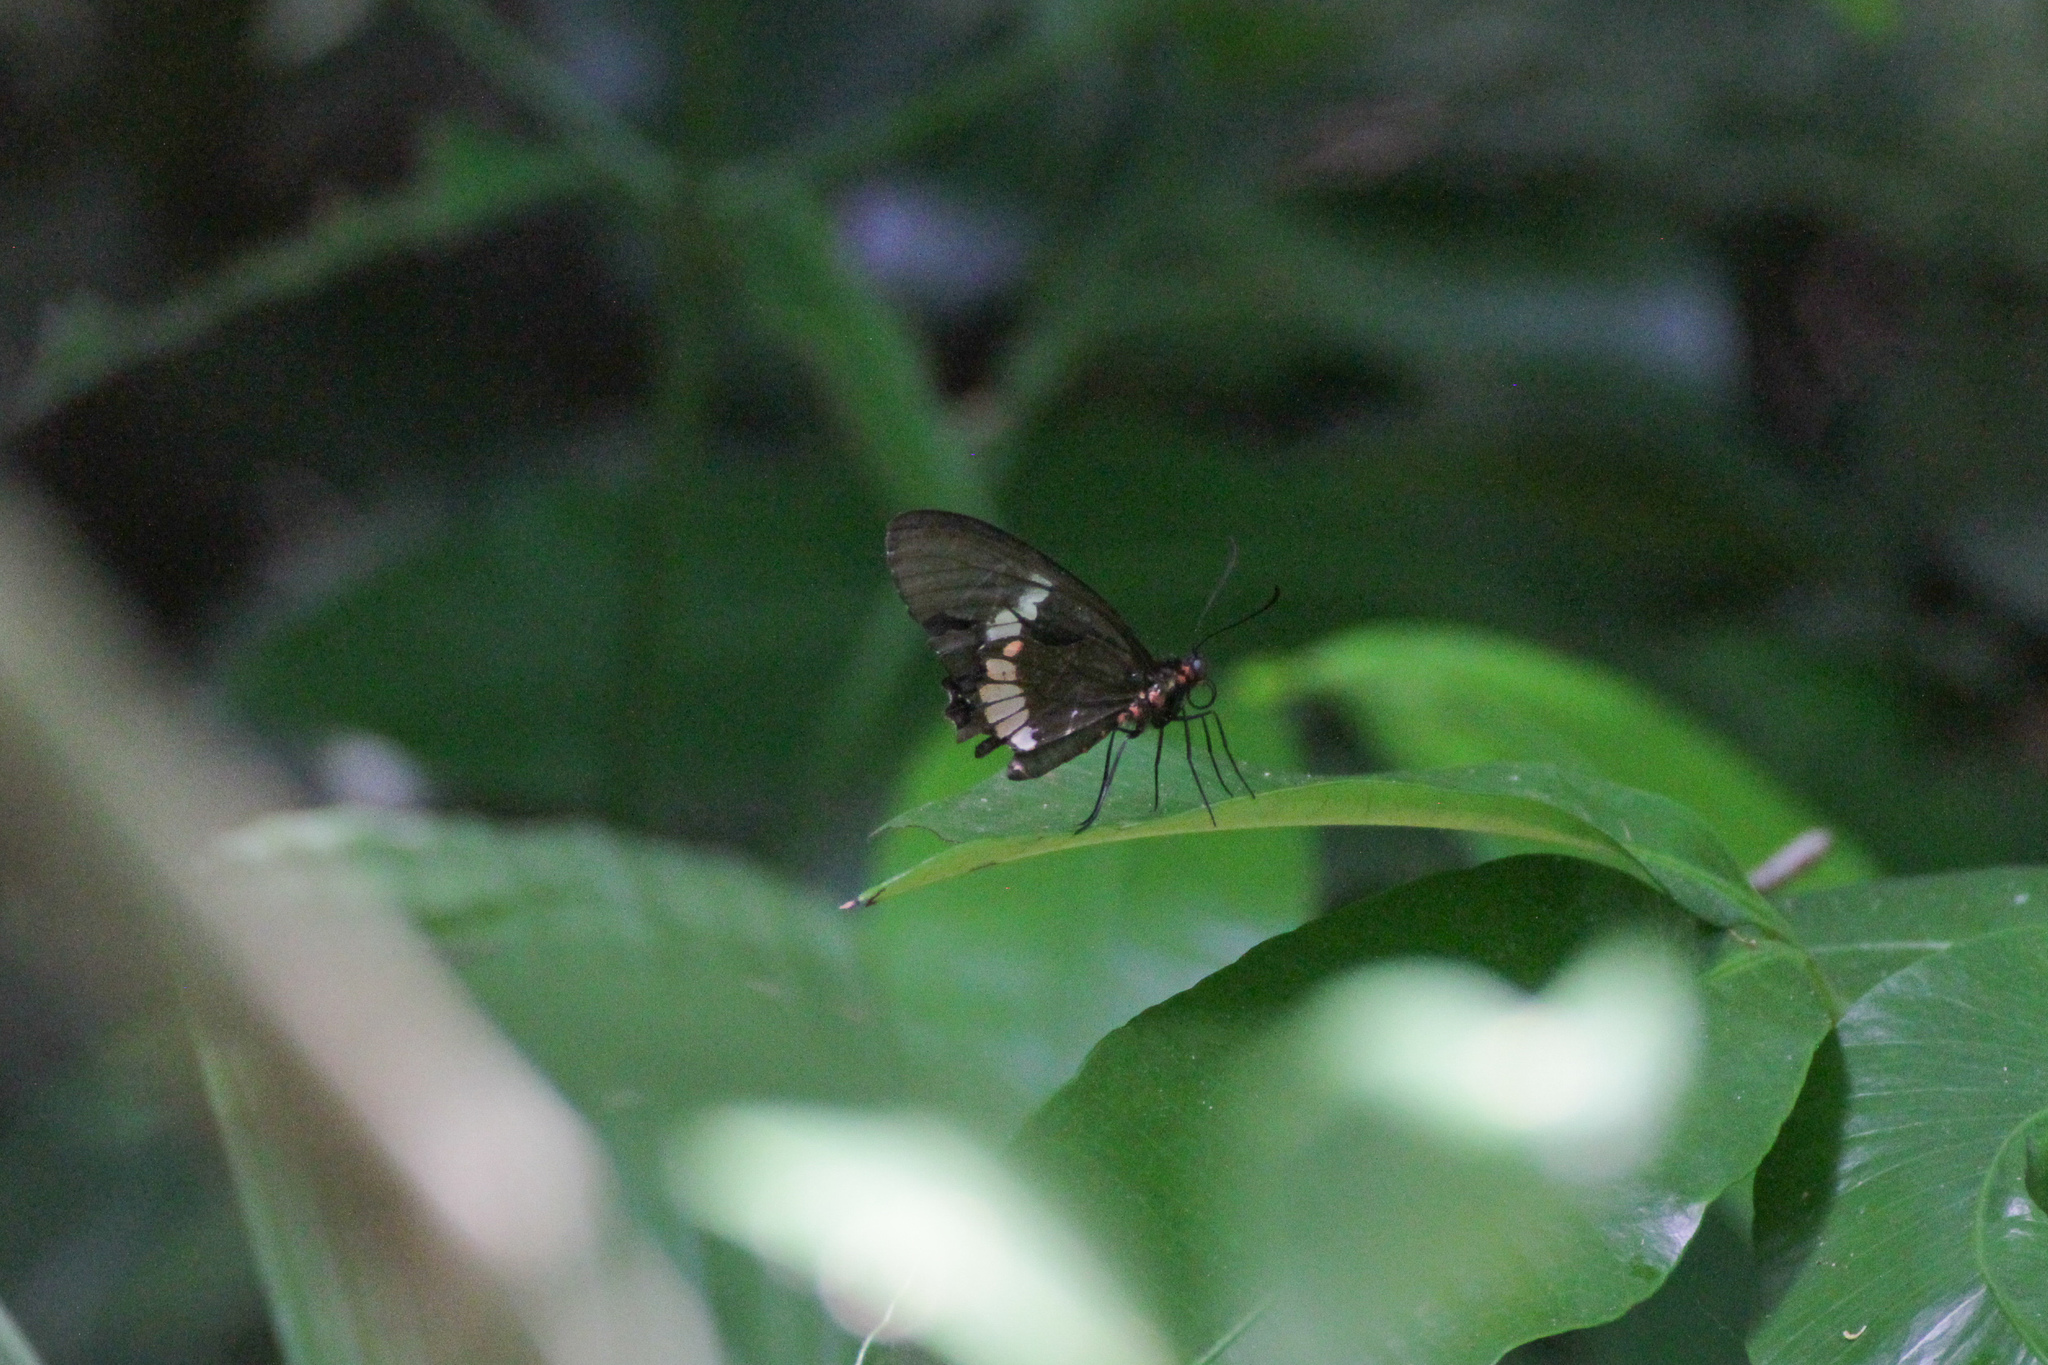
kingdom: Animalia
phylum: Arthropoda
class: Insecta
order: Lepidoptera
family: Papilionidae
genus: Parides
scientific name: Parides iphidamas
